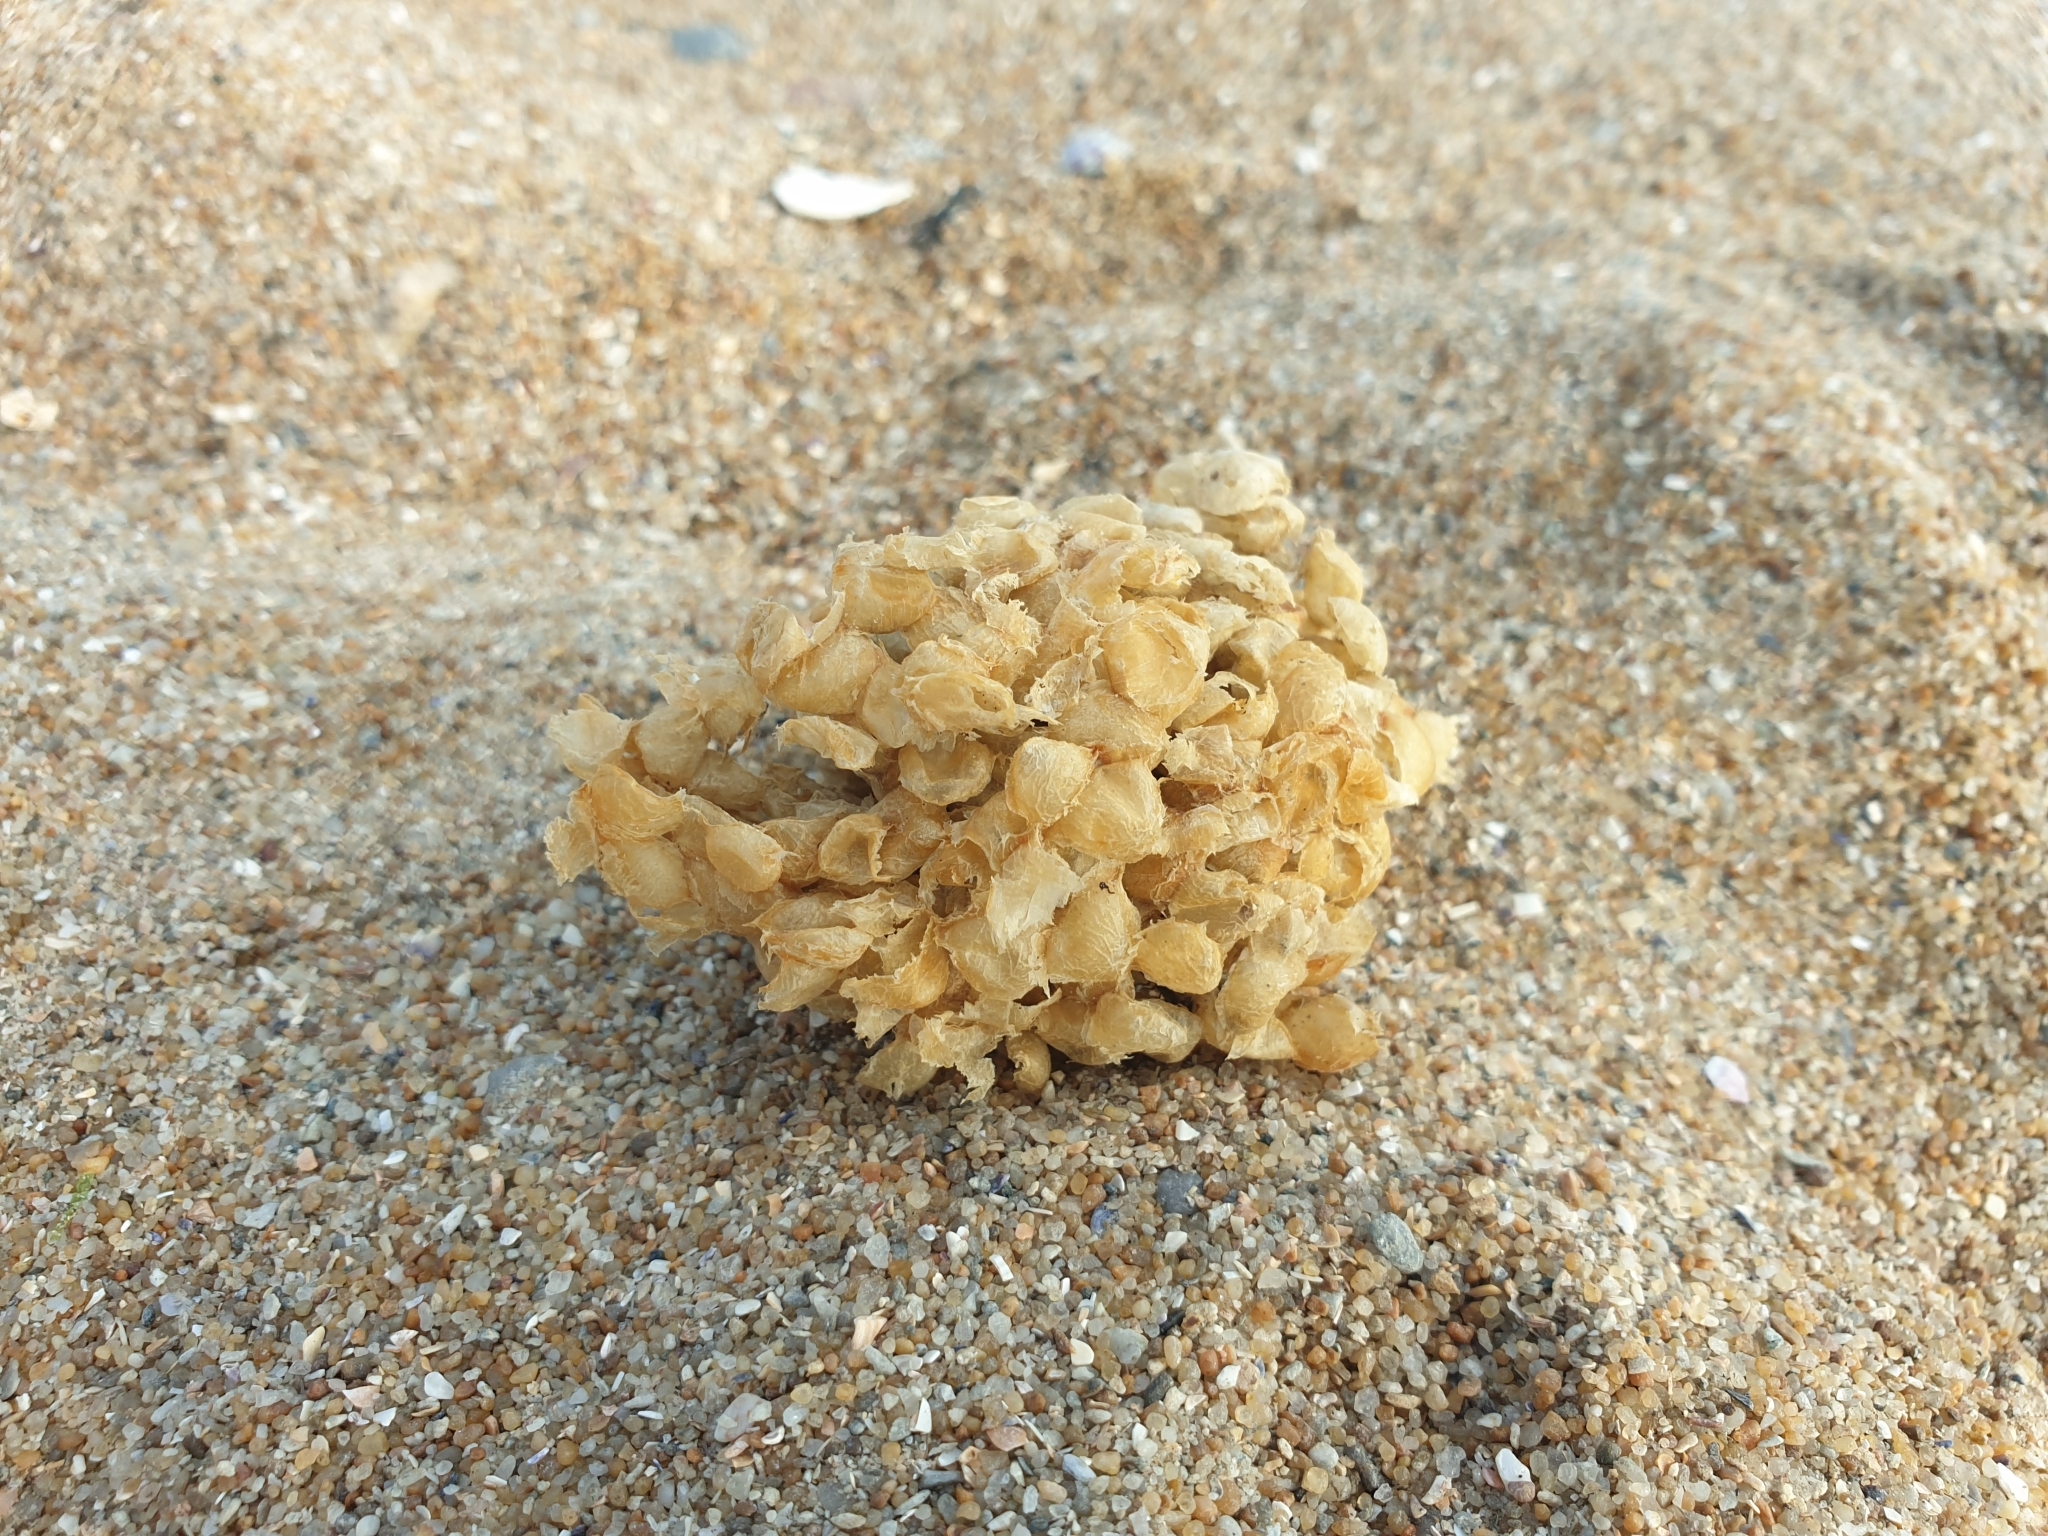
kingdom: Animalia
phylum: Mollusca
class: Gastropoda
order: Neogastropoda
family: Buccinidae
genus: Buccinum
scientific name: Buccinum undatum
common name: Common whelk
